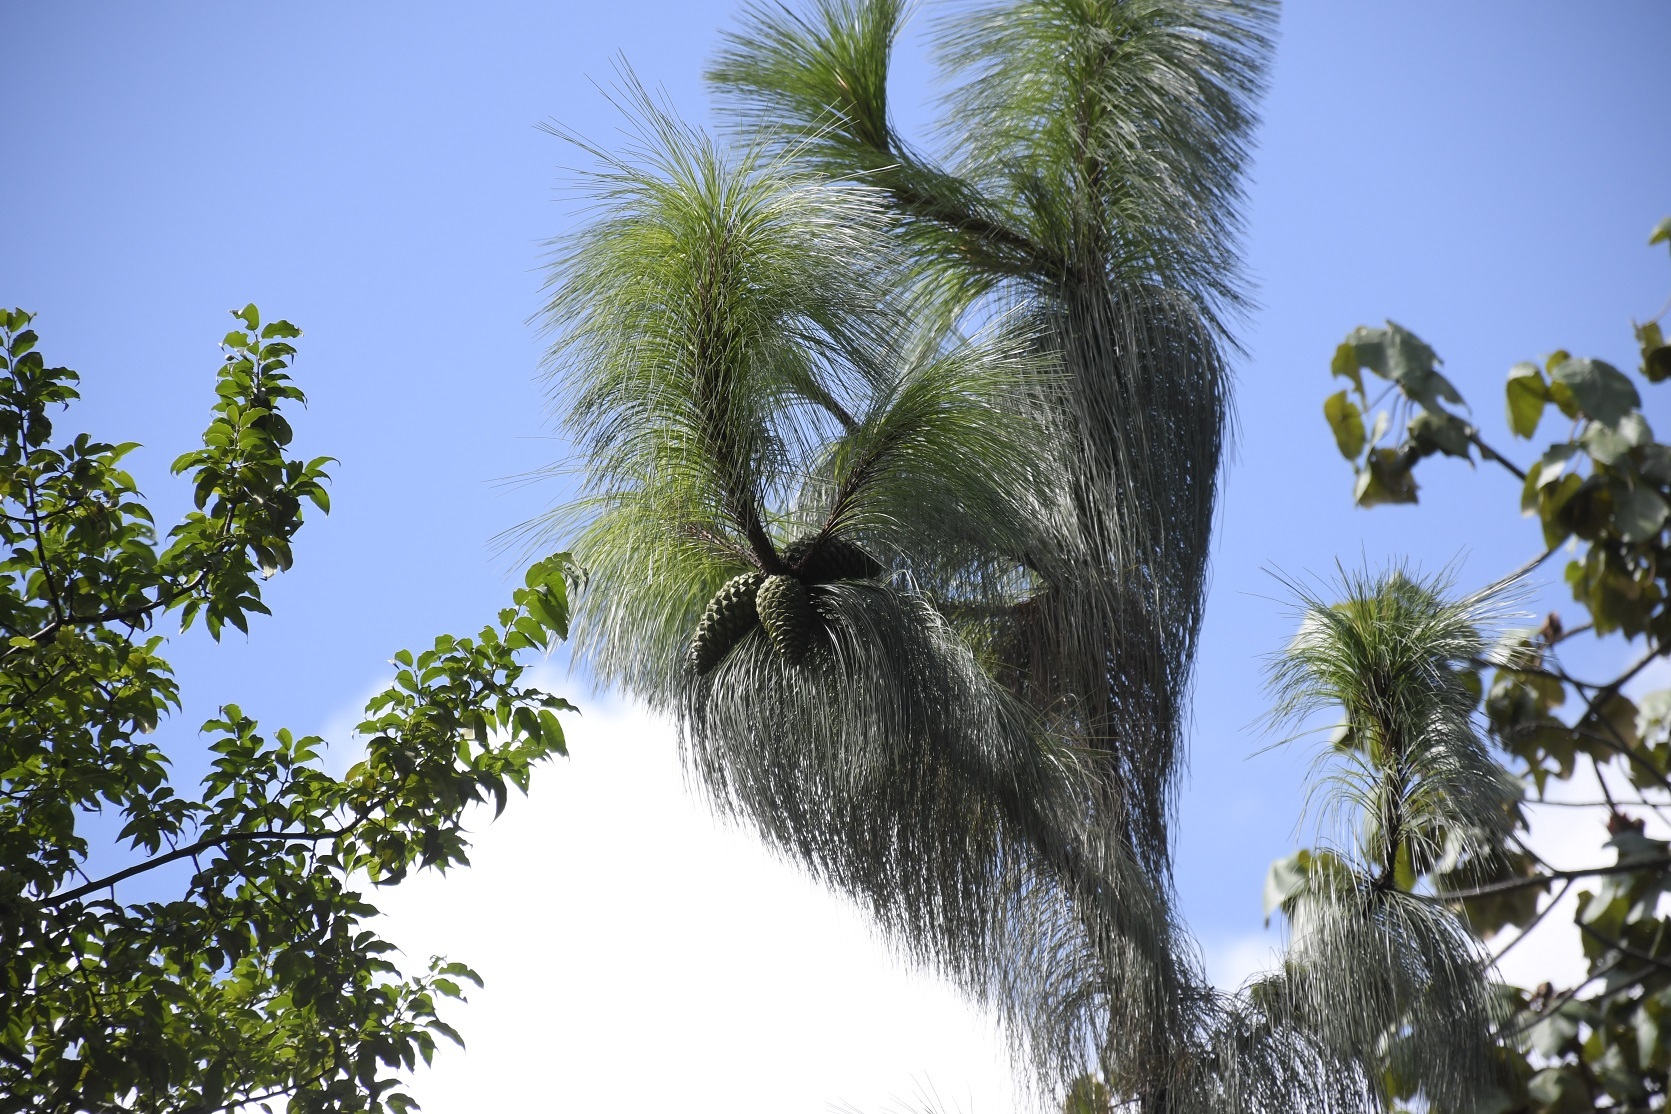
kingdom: Plantae
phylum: Tracheophyta
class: Pinopsida
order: Pinales
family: Pinaceae
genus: Pinus
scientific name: Pinus devoniana
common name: Michoacan pine
